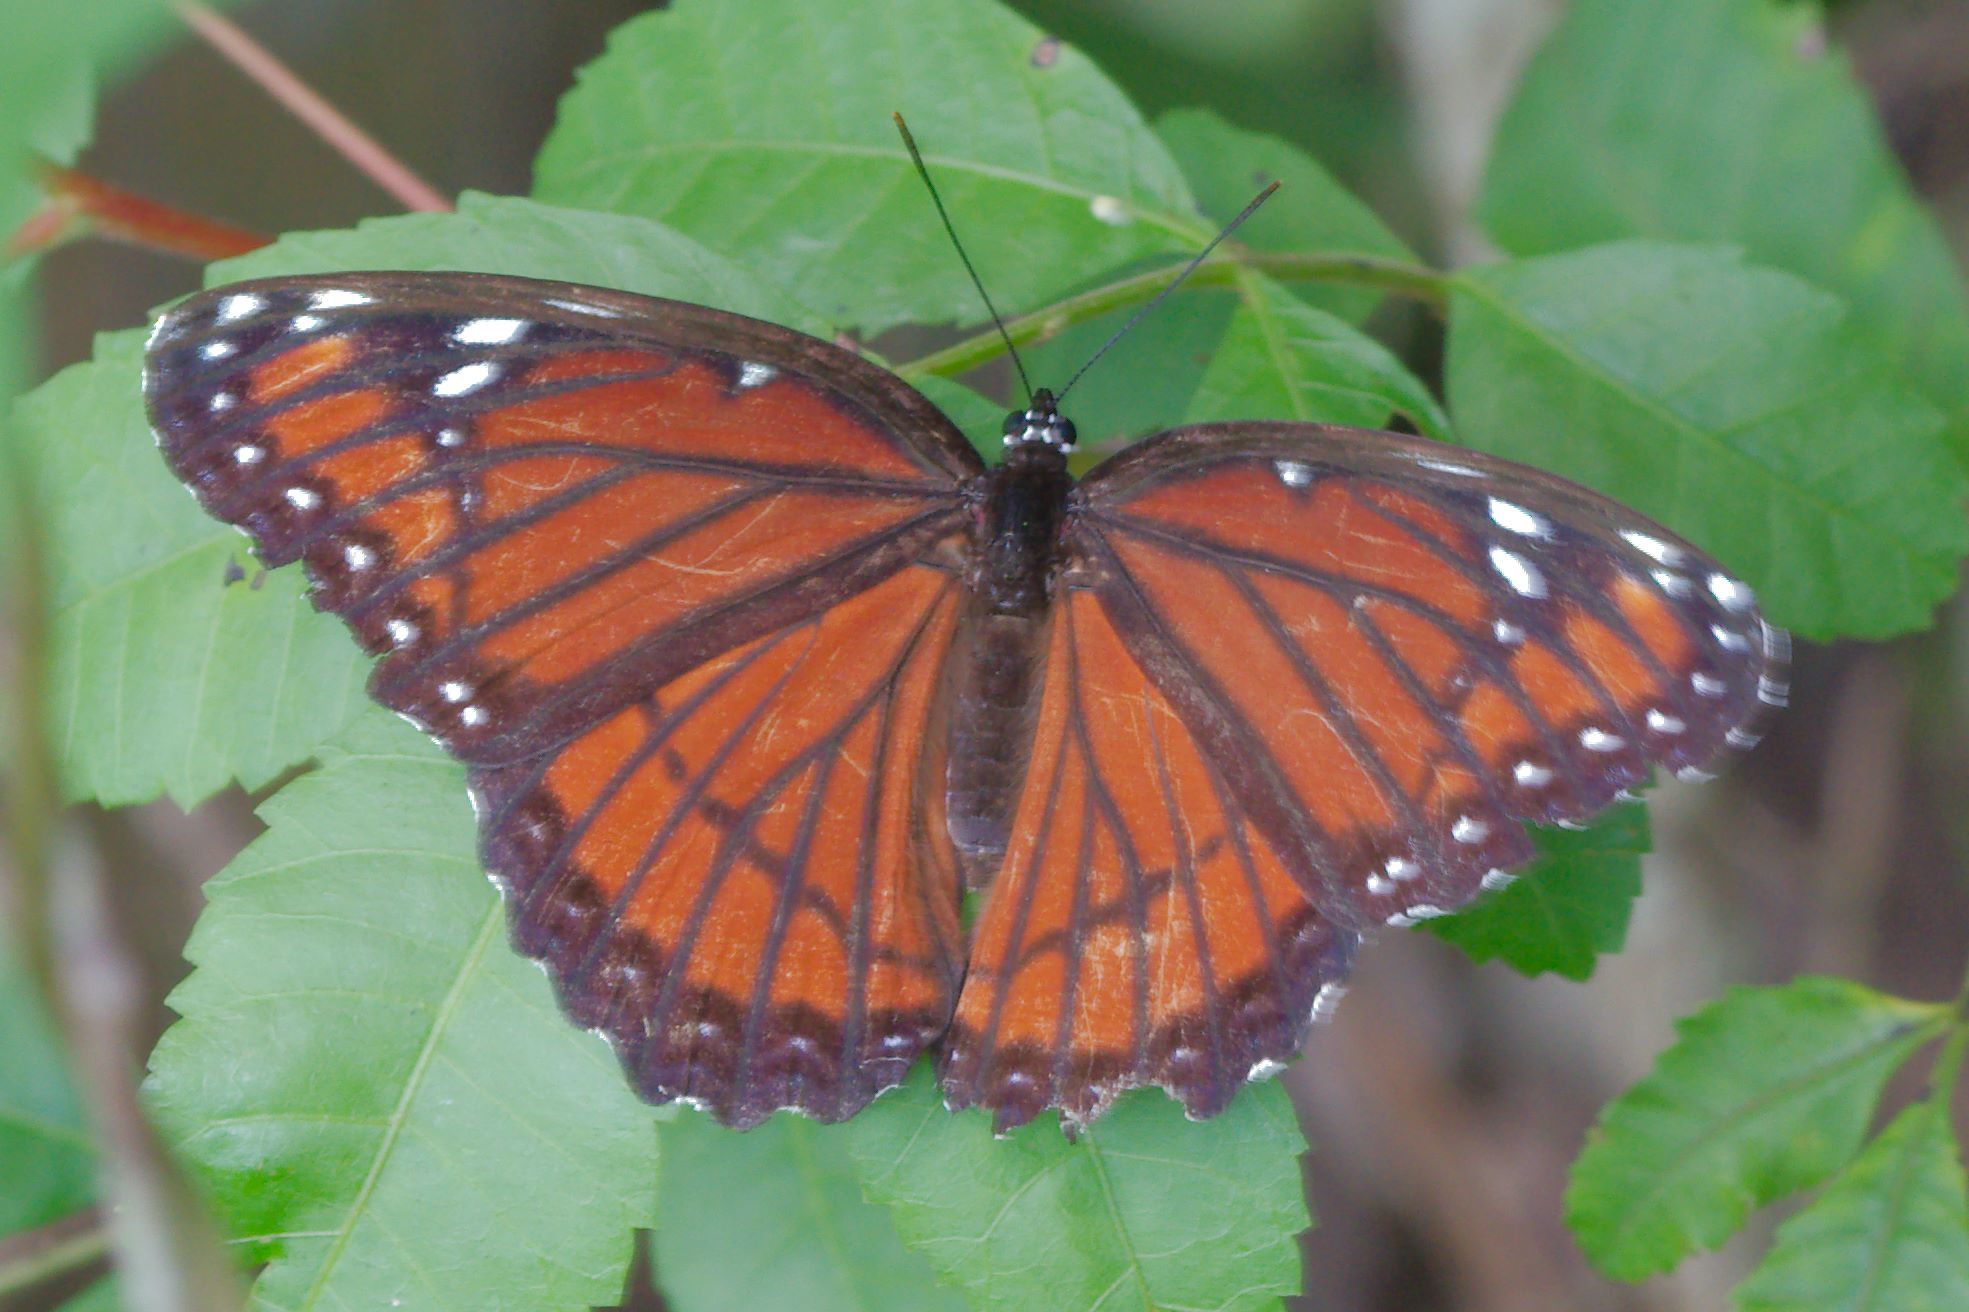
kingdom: Animalia
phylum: Arthropoda
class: Insecta
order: Lepidoptera
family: Nymphalidae
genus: Limenitis
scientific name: Limenitis archippus
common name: Viceroy
